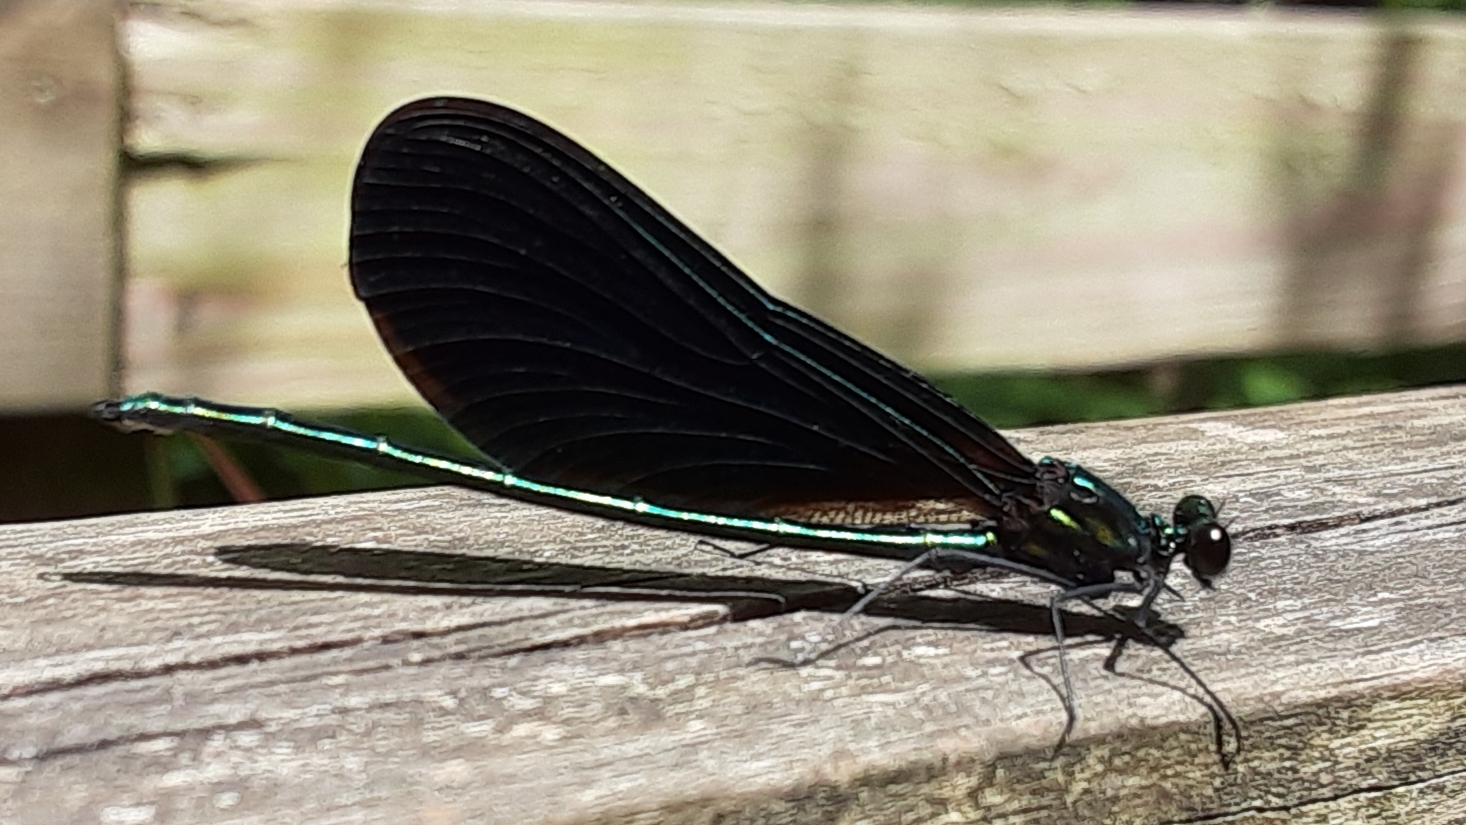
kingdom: Animalia
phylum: Arthropoda
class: Insecta
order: Odonata
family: Calopterygidae
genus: Calopteryx
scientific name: Calopteryx maculata
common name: Ebony jewelwing
